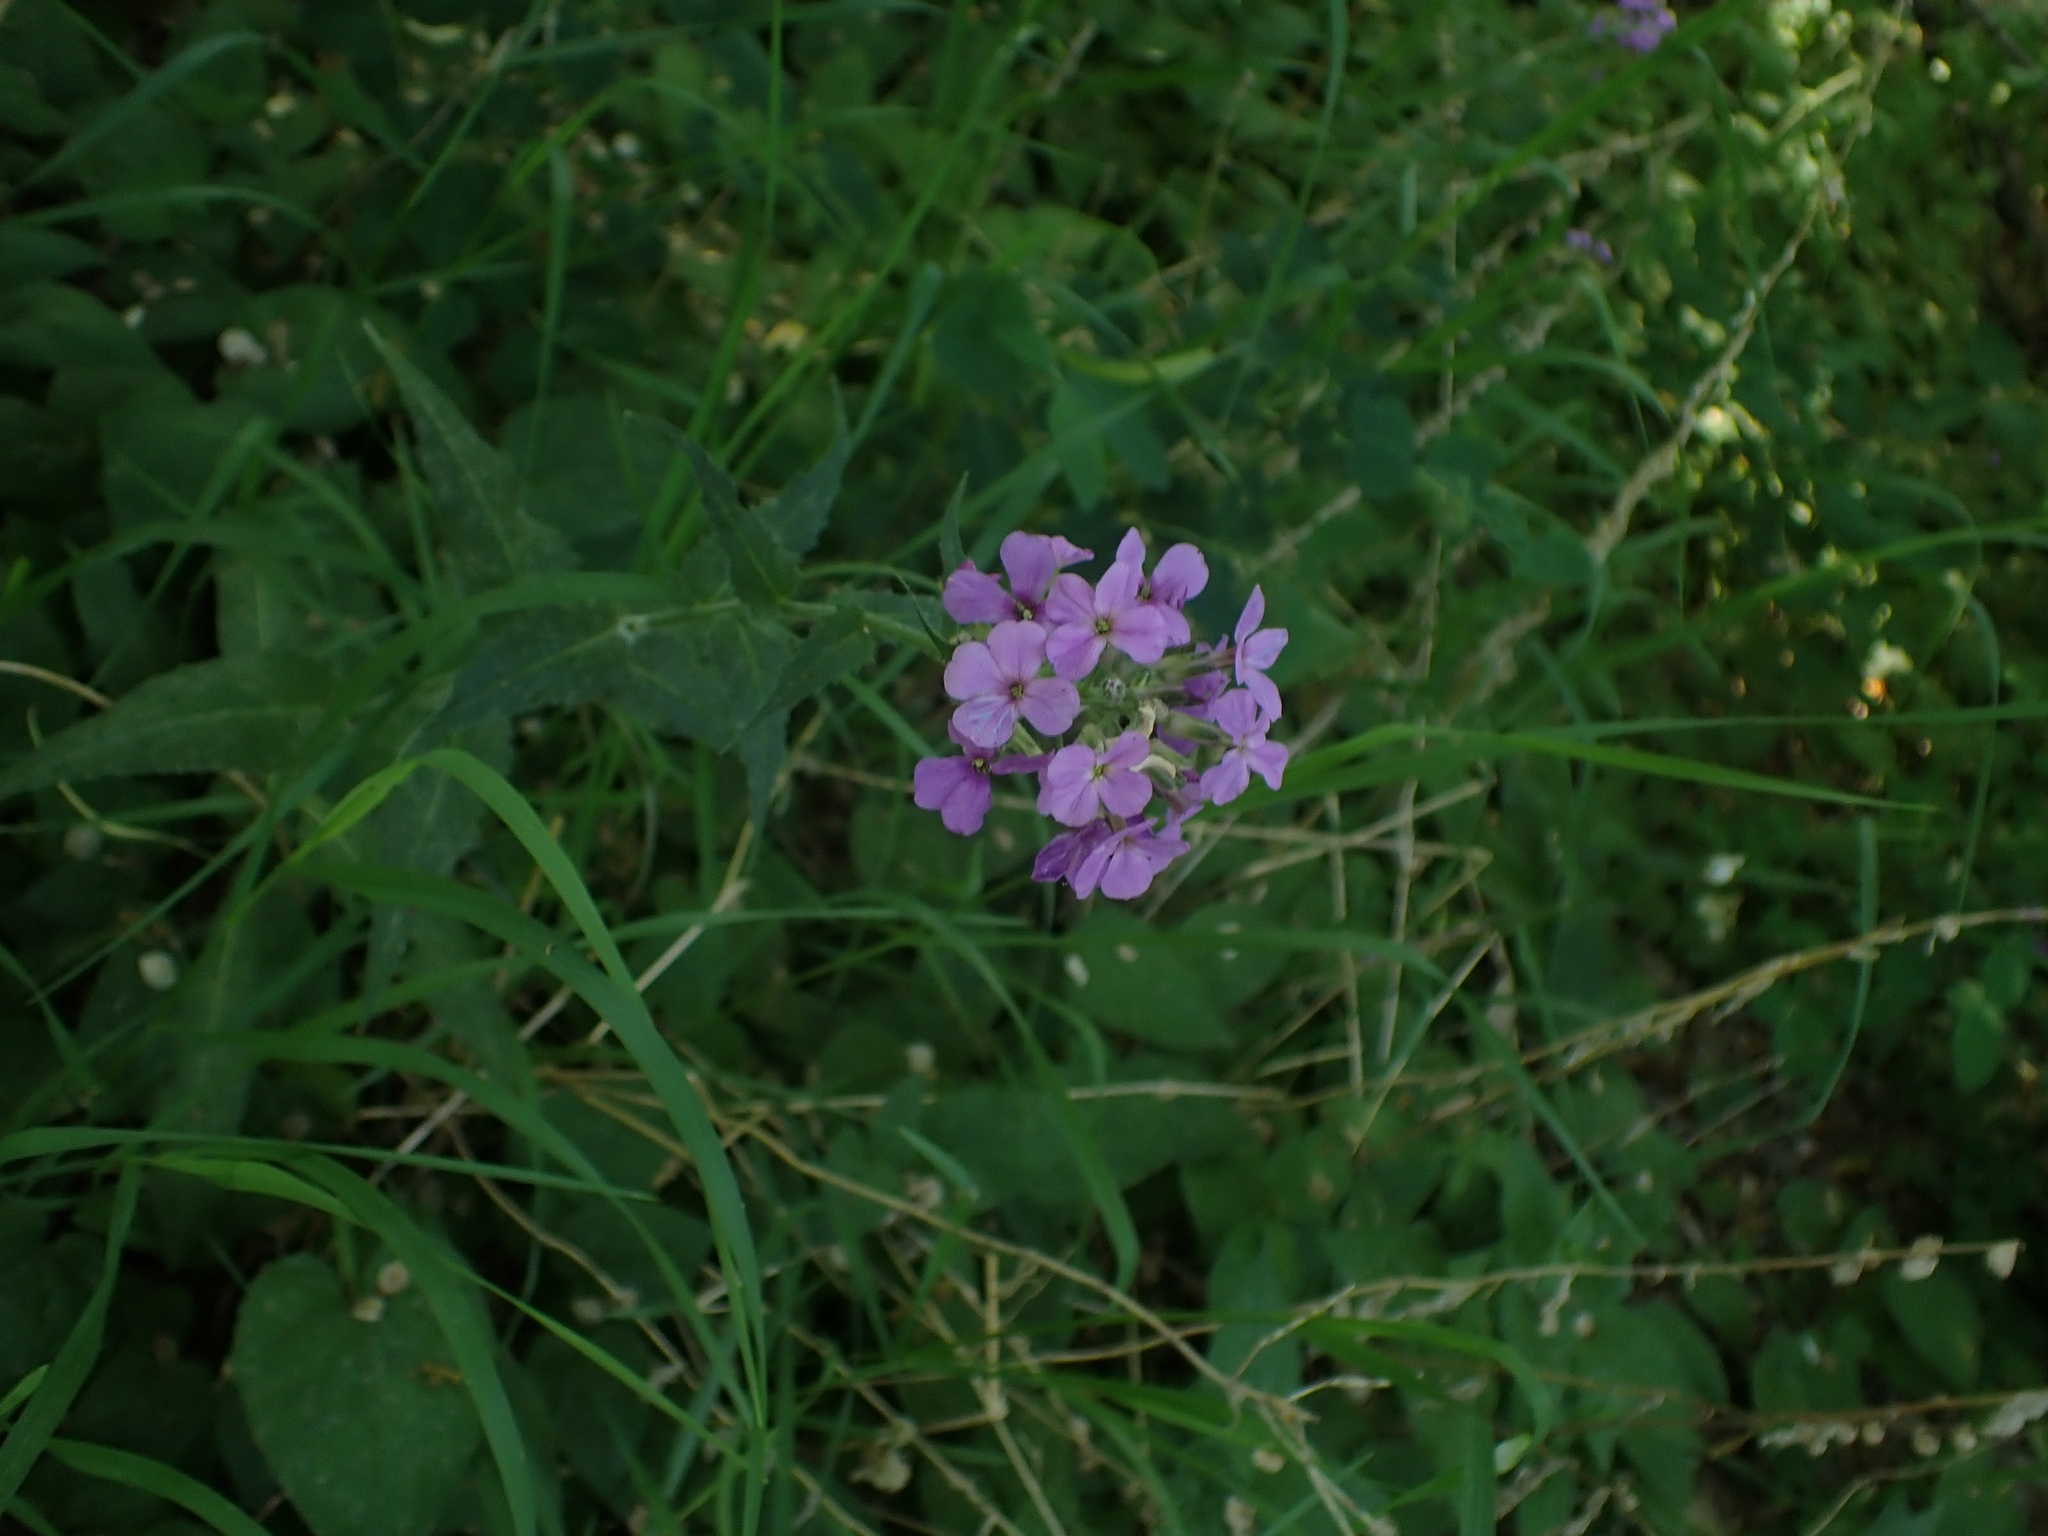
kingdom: Plantae
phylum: Tracheophyta
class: Magnoliopsida
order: Brassicales
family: Brassicaceae
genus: Hesperis
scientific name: Hesperis matronalis
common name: Dame's-violet
